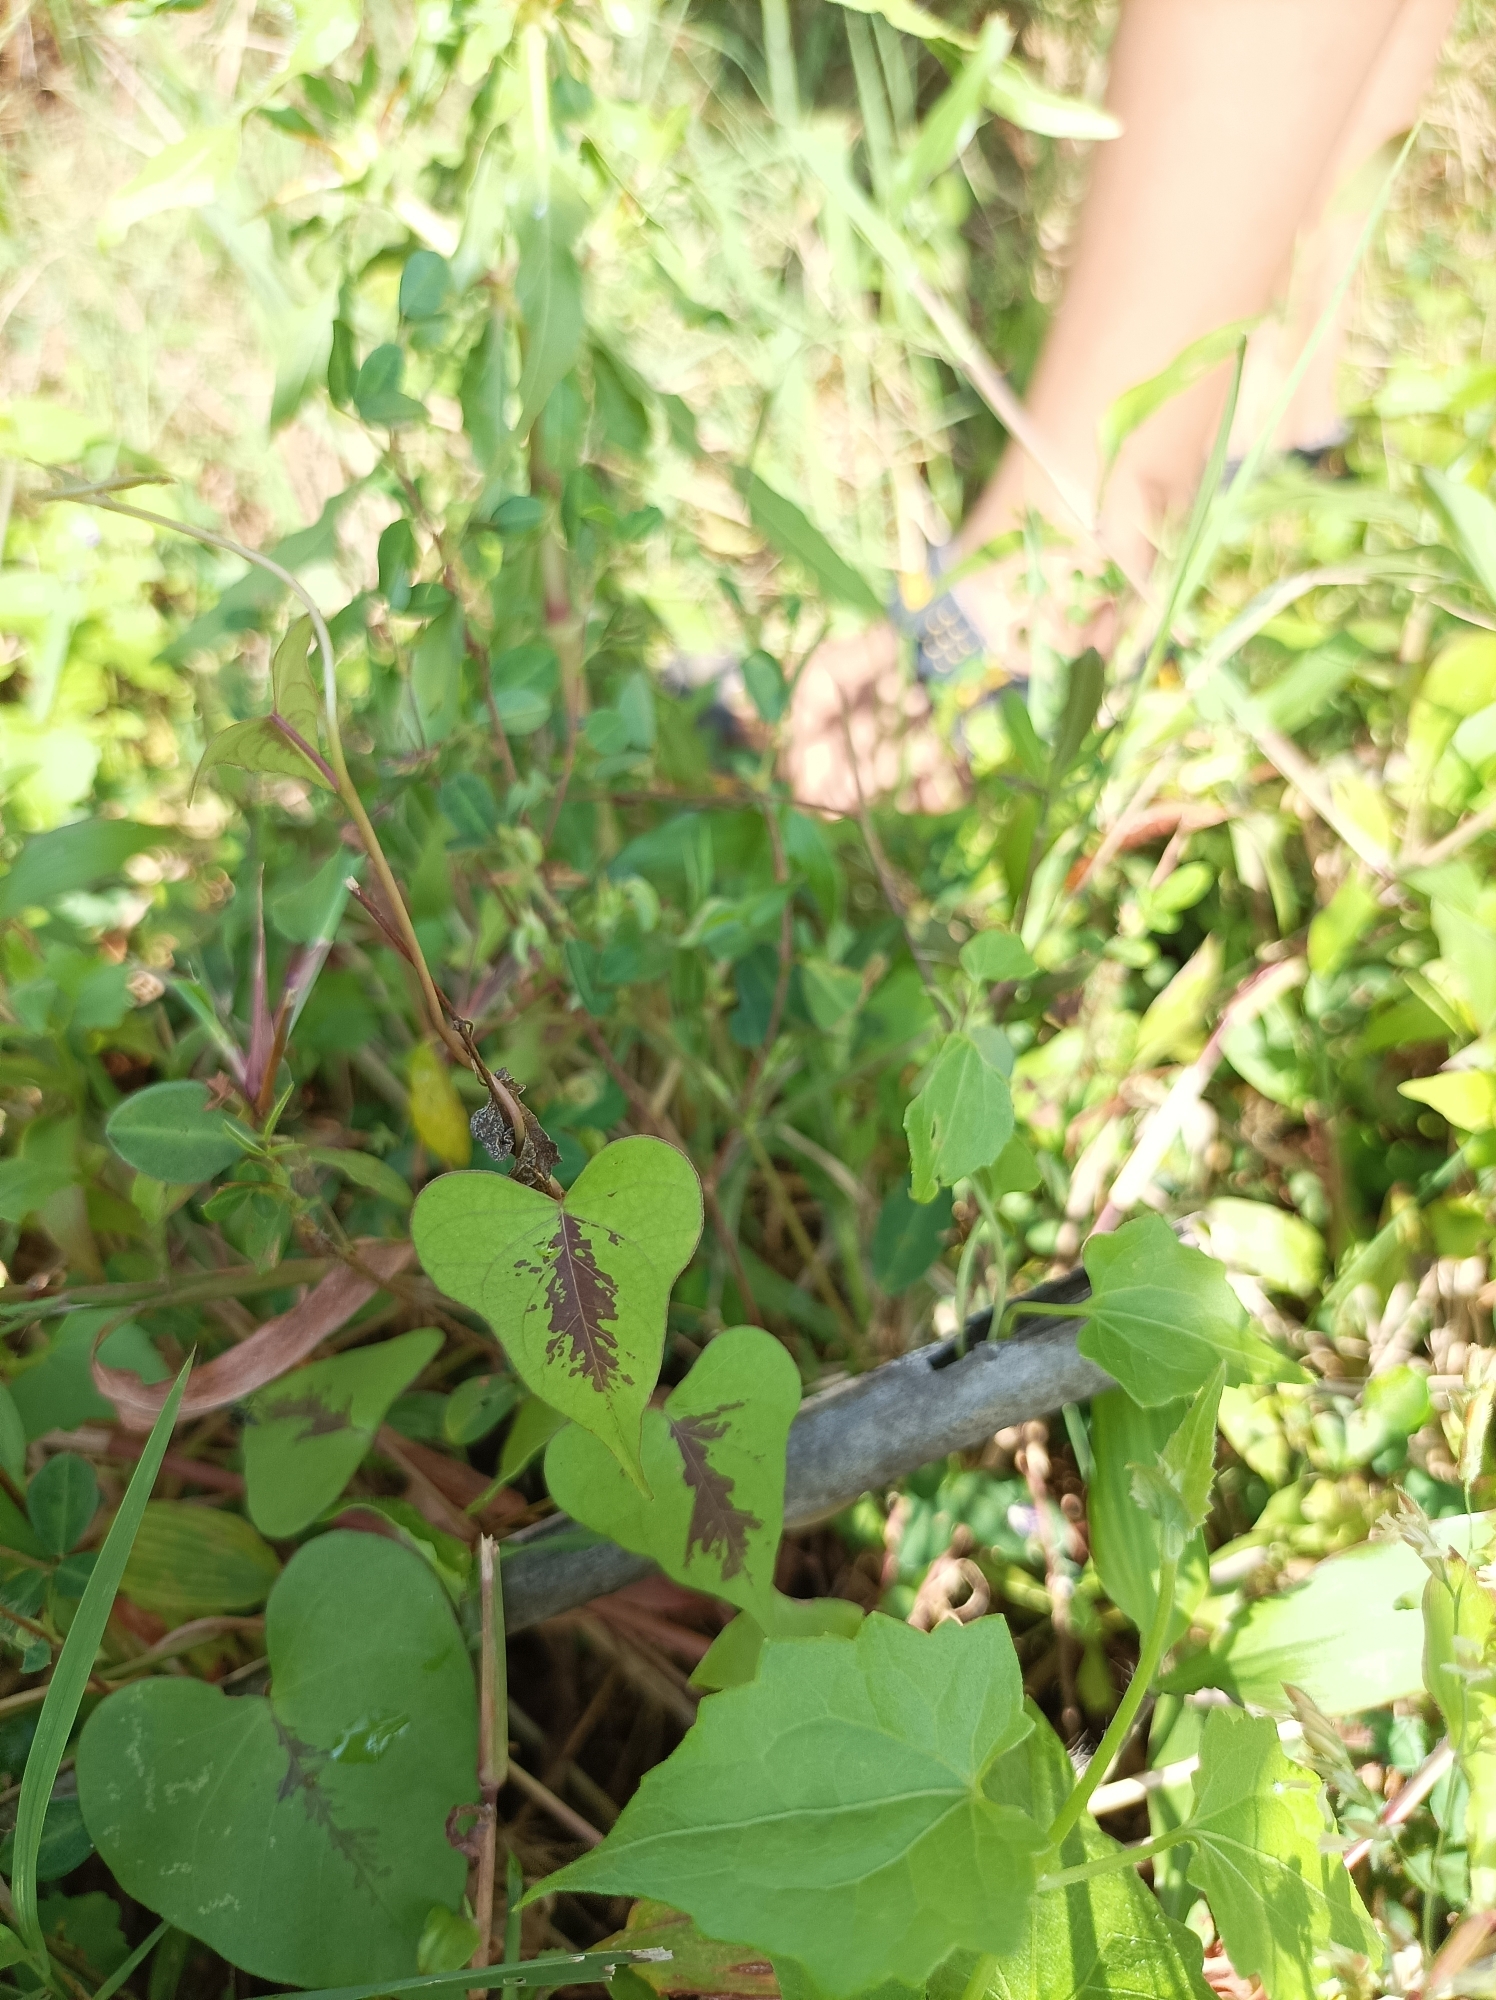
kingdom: Plantae
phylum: Tracheophyta
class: Magnoliopsida
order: Solanales
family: Convolvulaceae
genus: Ipomoea
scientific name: Ipomoea sagittifolia
